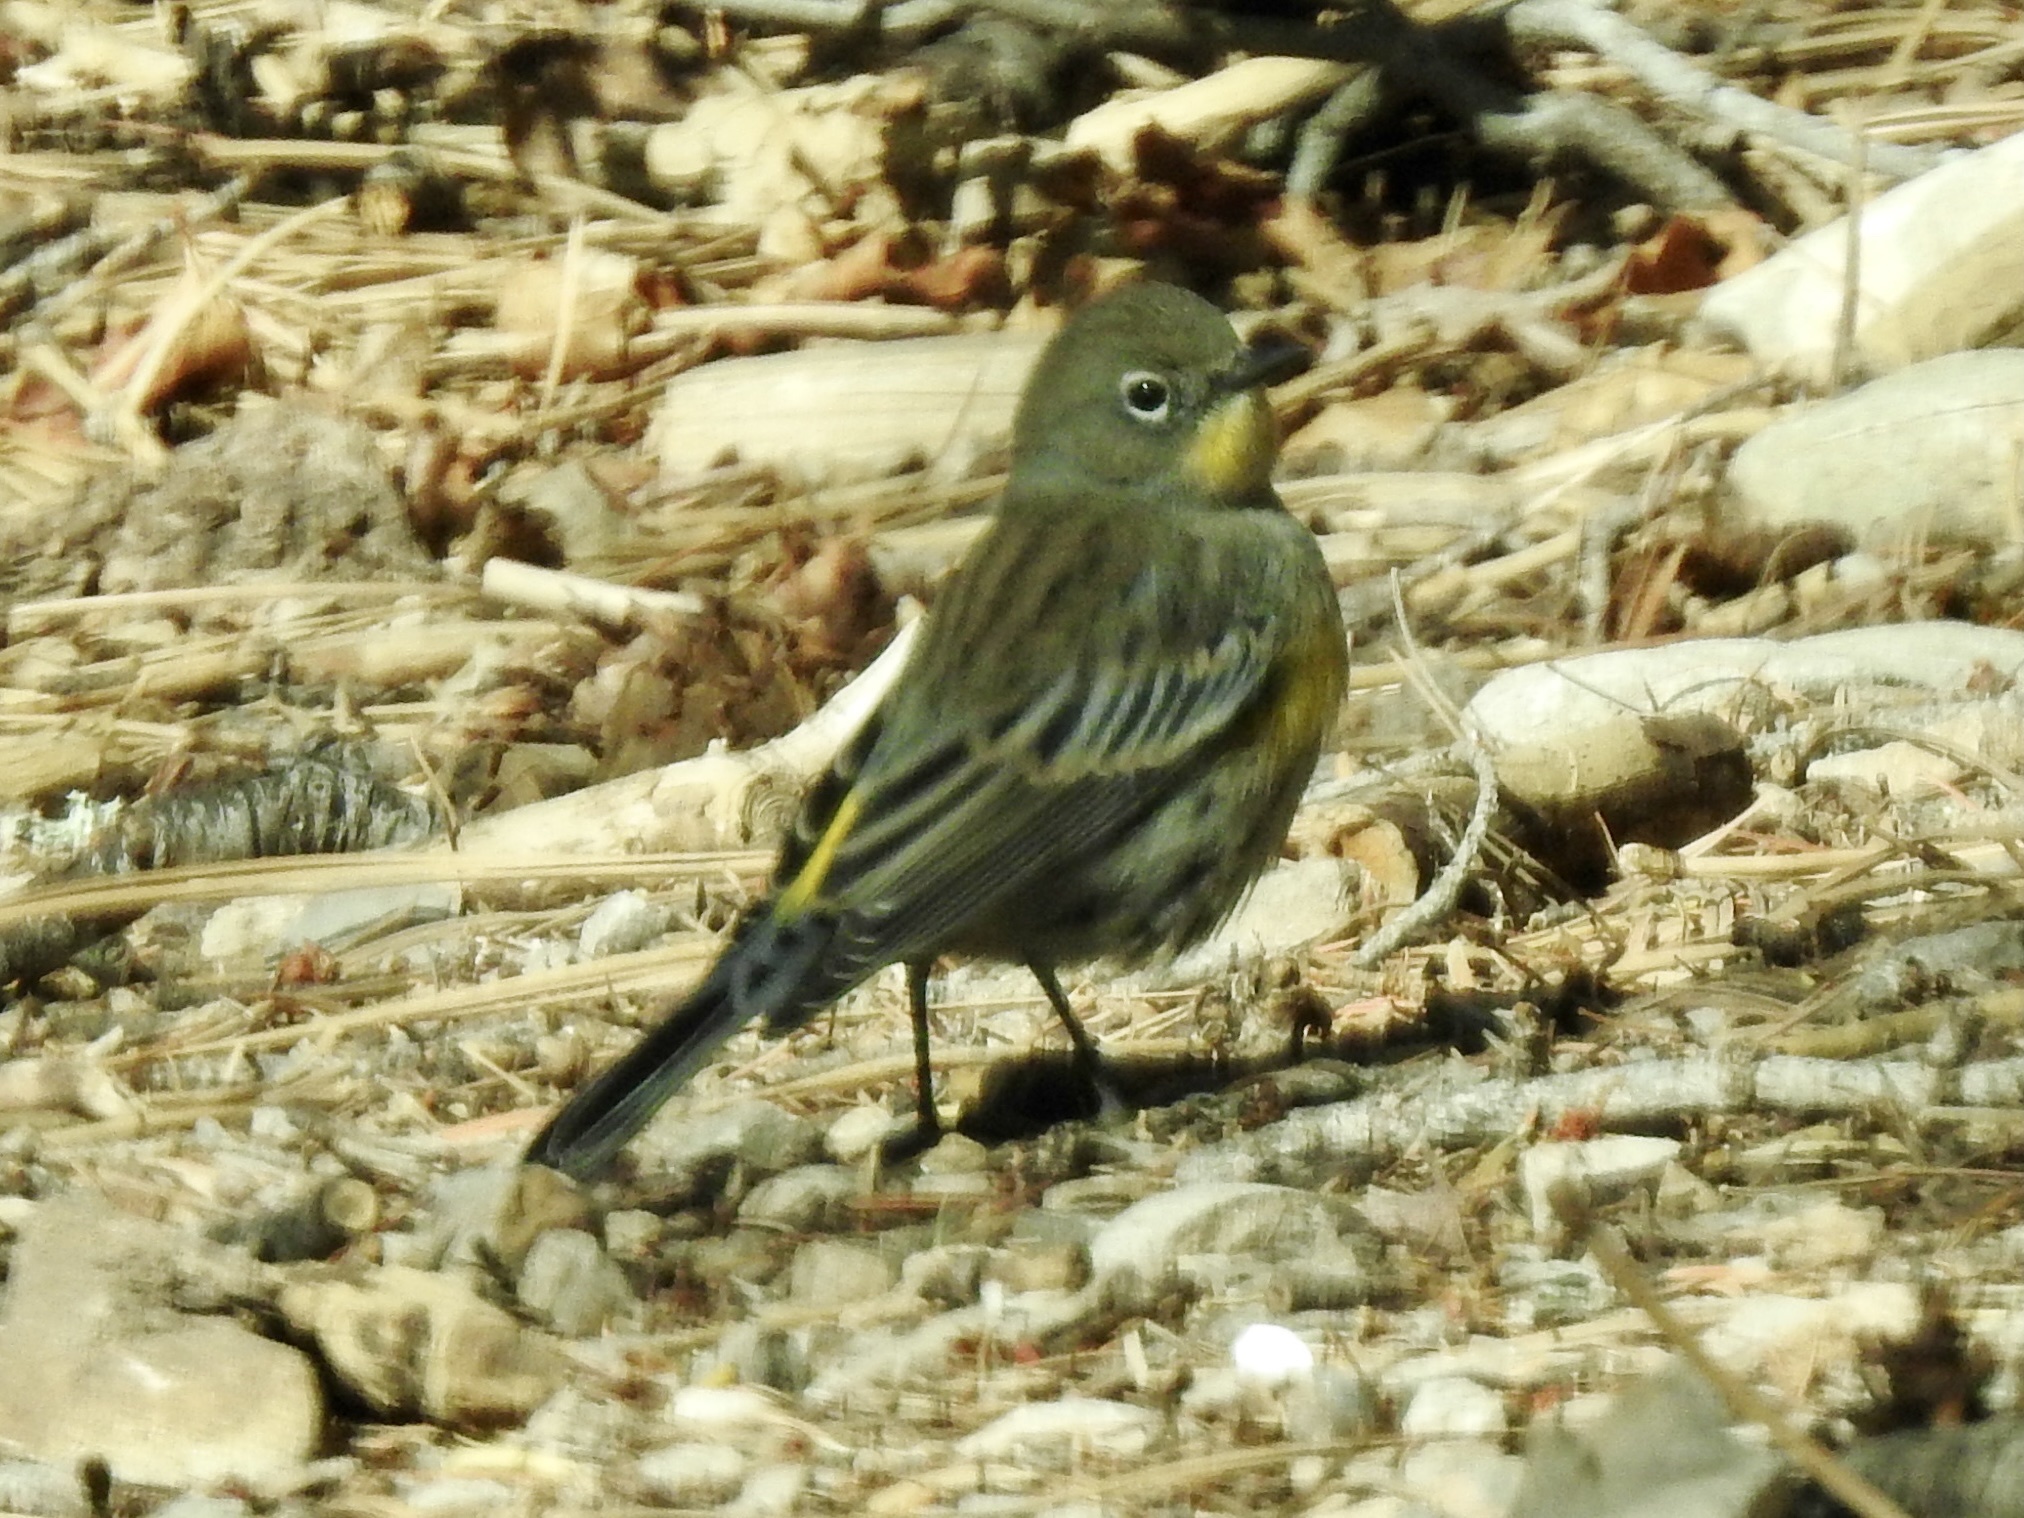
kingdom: Animalia
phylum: Chordata
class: Aves
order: Passeriformes
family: Parulidae
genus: Setophaga
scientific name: Setophaga coronata
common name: Myrtle warbler
